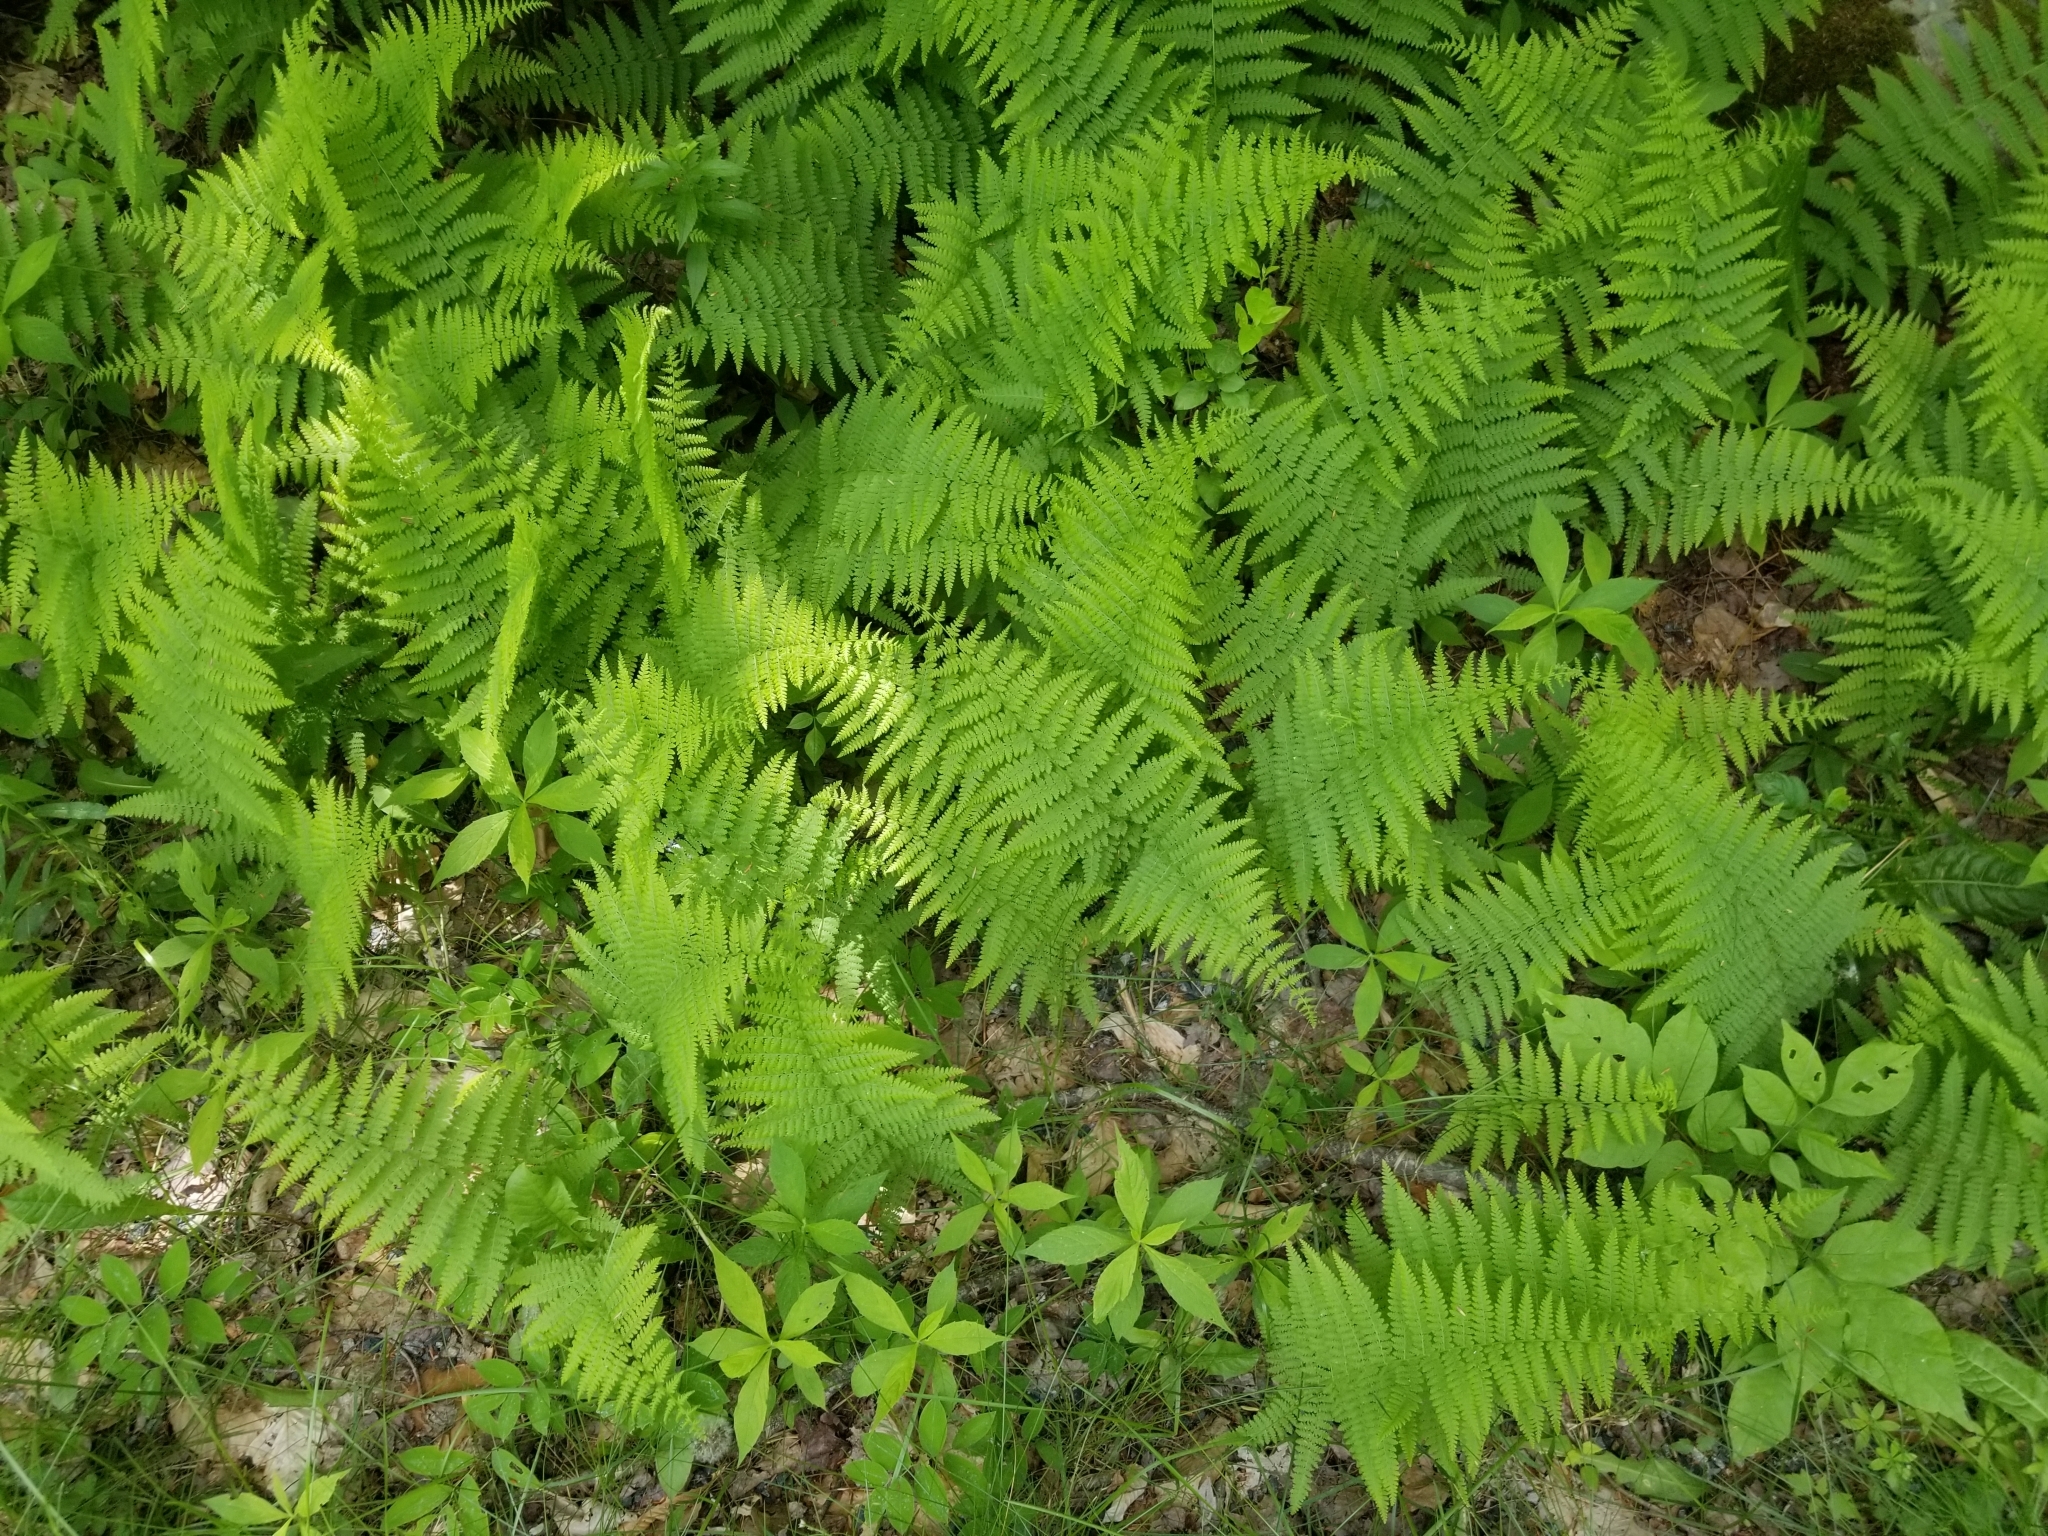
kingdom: Plantae
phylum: Tracheophyta
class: Polypodiopsida
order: Polypodiales
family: Dennstaedtiaceae
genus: Sitobolium
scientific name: Sitobolium punctilobum
